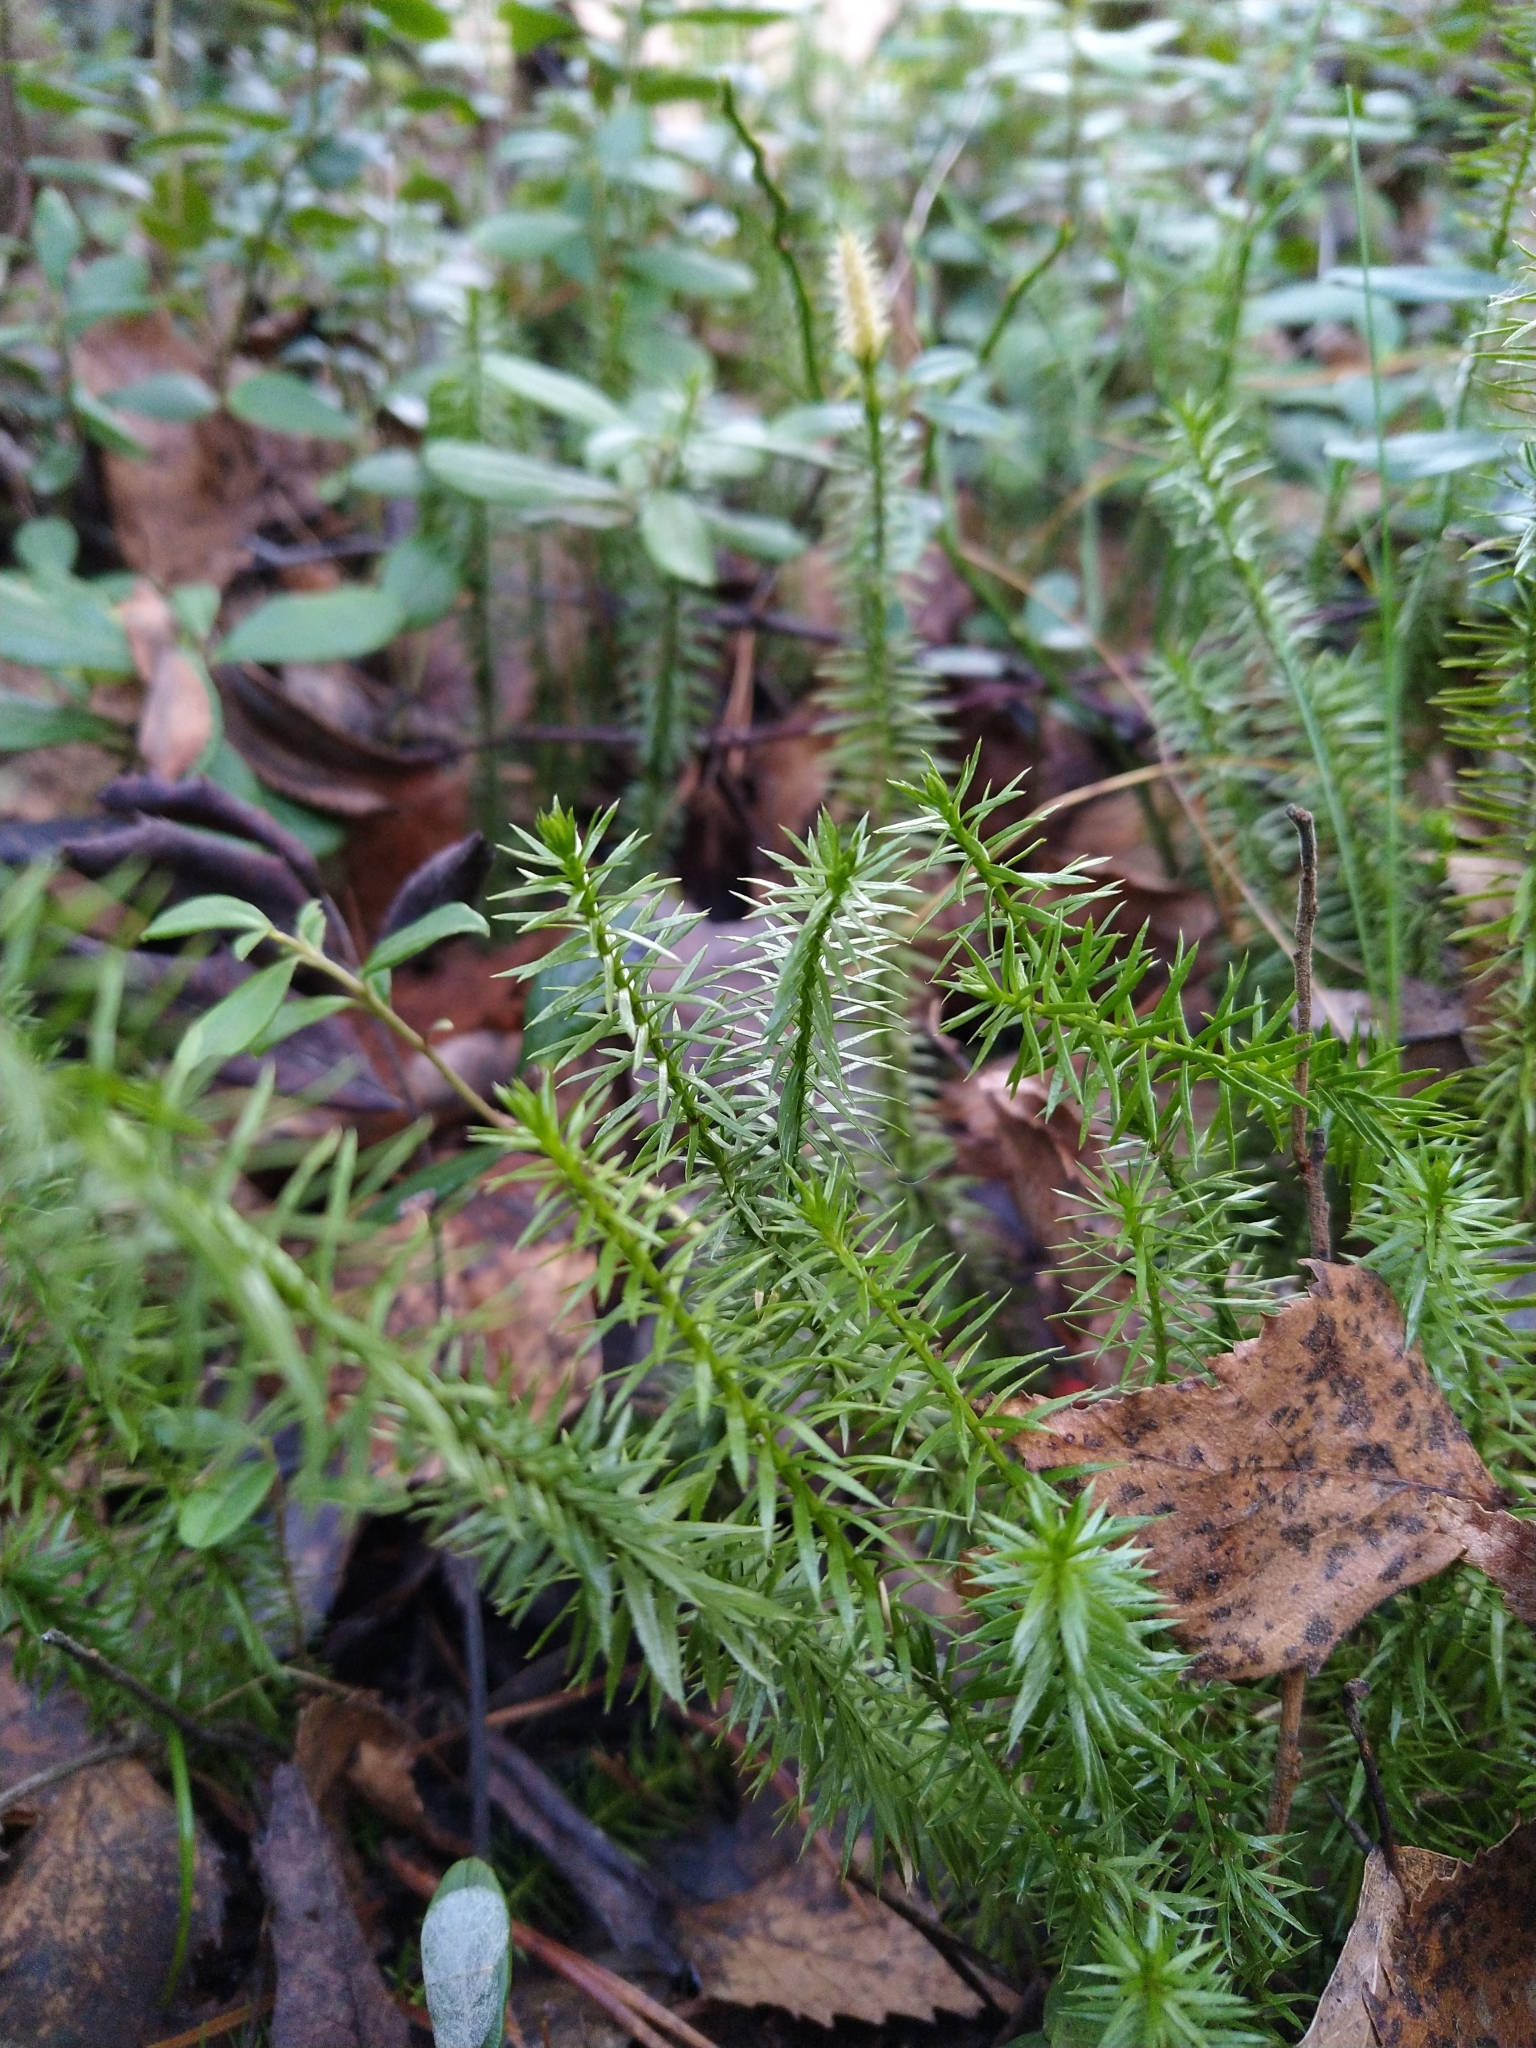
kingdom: Plantae
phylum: Tracheophyta
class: Lycopodiopsida
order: Lycopodiales
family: Lycopodiaceae
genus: Spinulum
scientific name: Spinulum annotinum
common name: Interrupted club-moss
